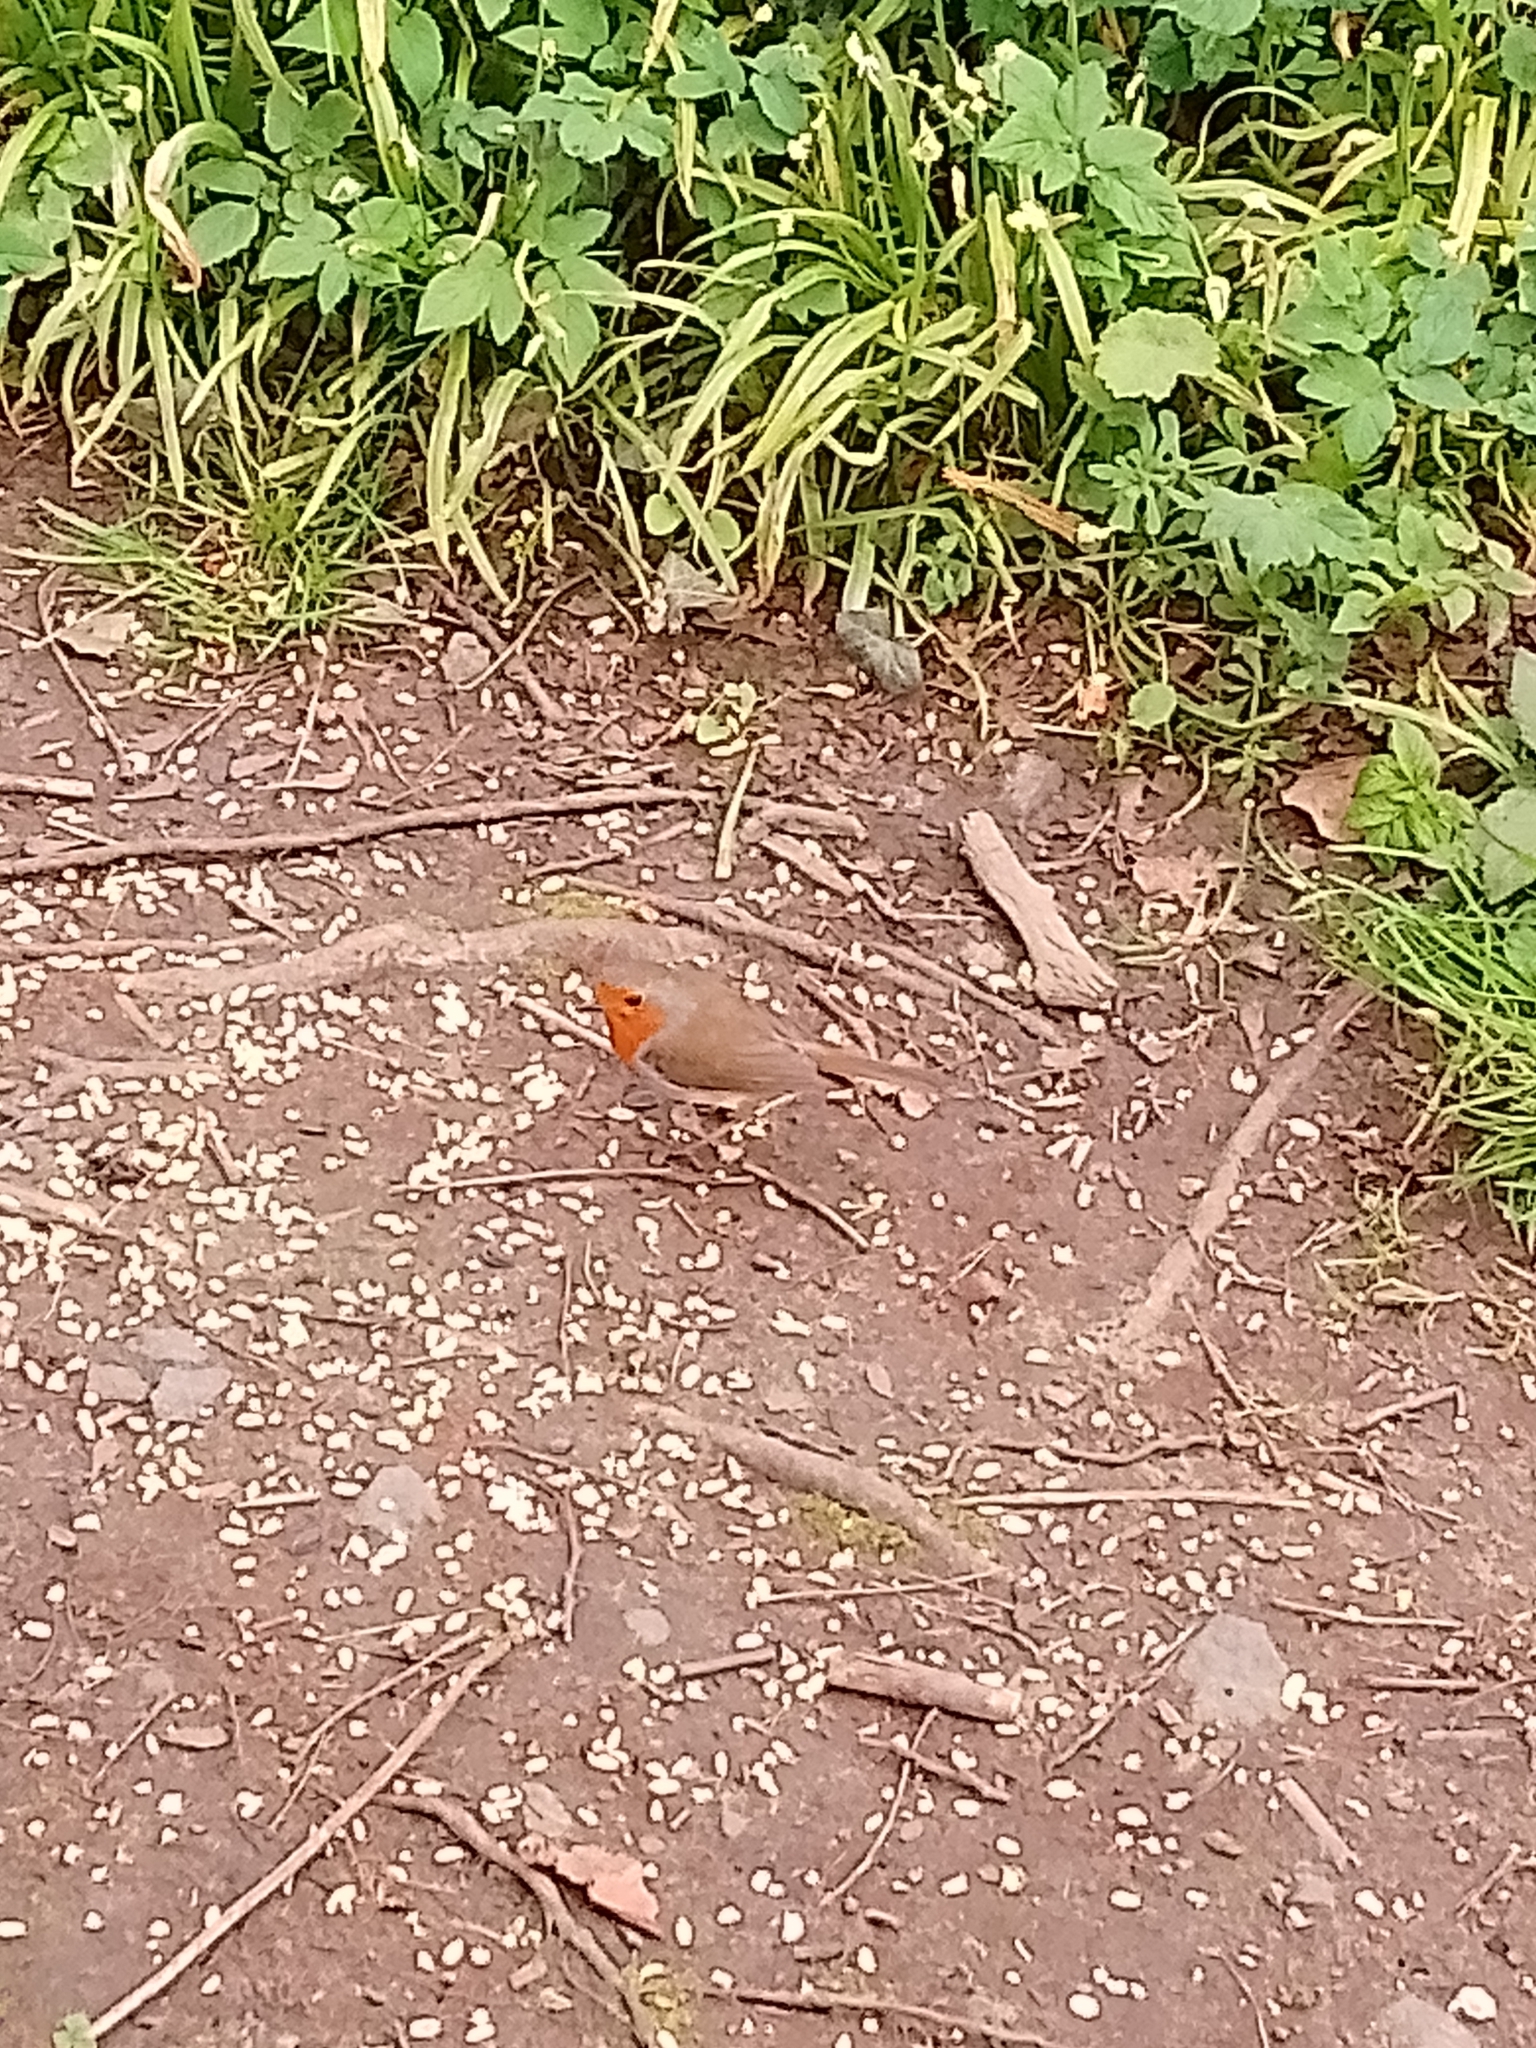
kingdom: Animalia
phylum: Chordata
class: Aves
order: Passeriformes
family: Muscicapidae
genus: Erithacus
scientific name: Erithacus rubecula
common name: European robin
